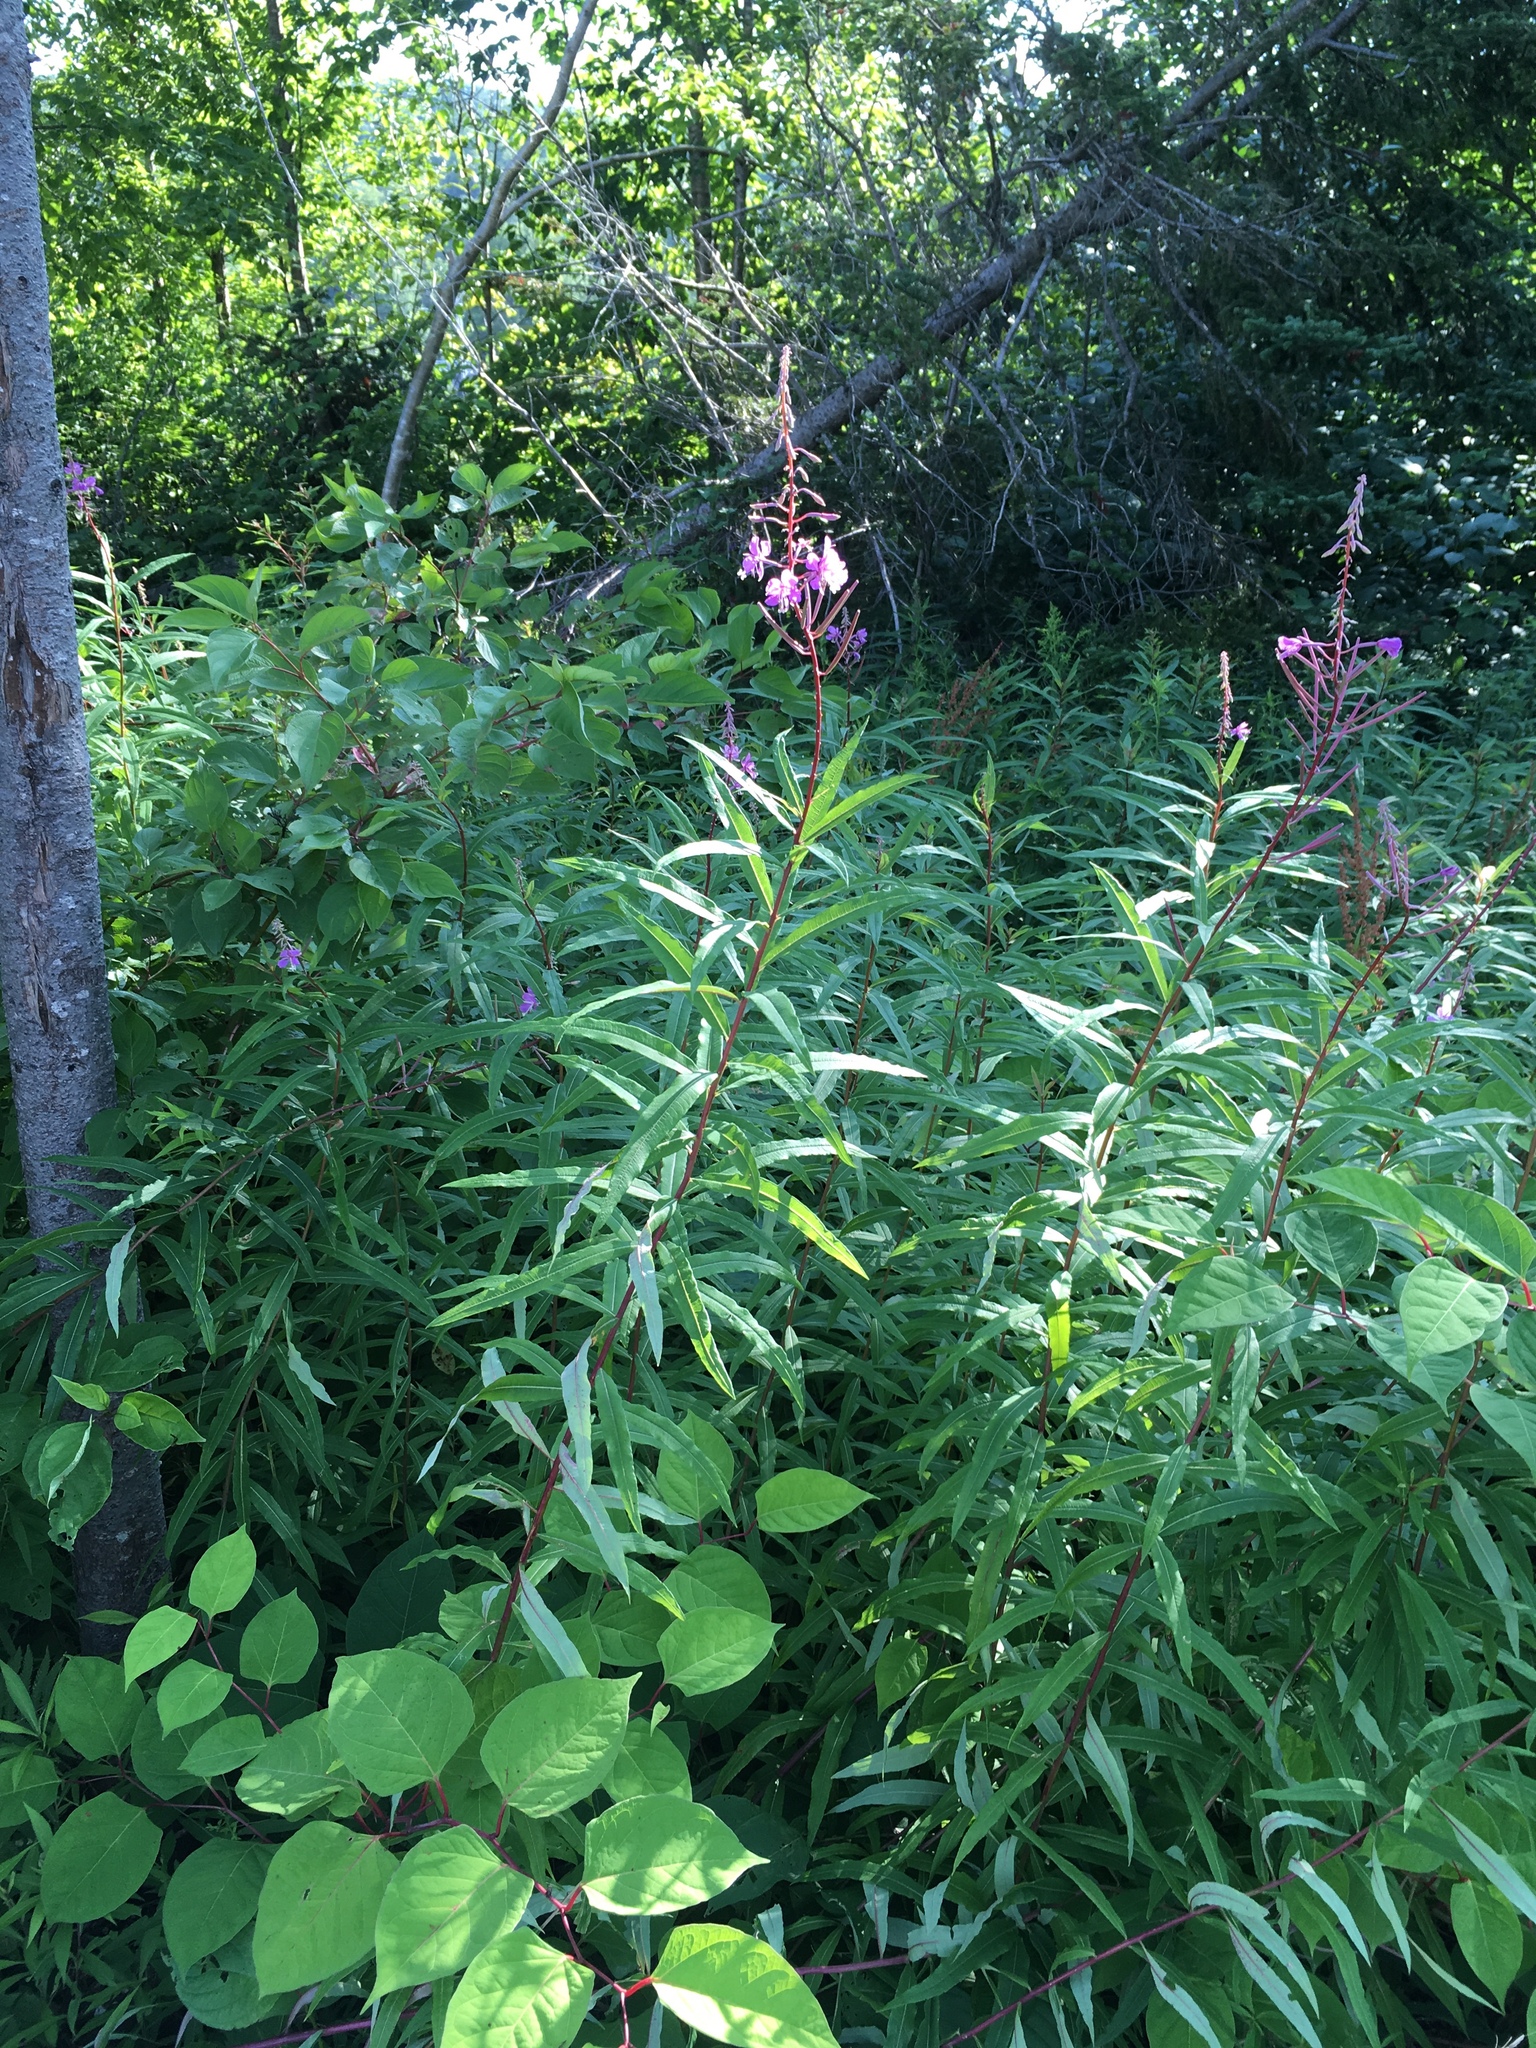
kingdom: Plantae
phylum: Tracheophyta
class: Magnoliopsida
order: Myrtales
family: Onagraceae
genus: Chamaenerion
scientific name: Chamaenerion angustifolium
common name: Fireweed
